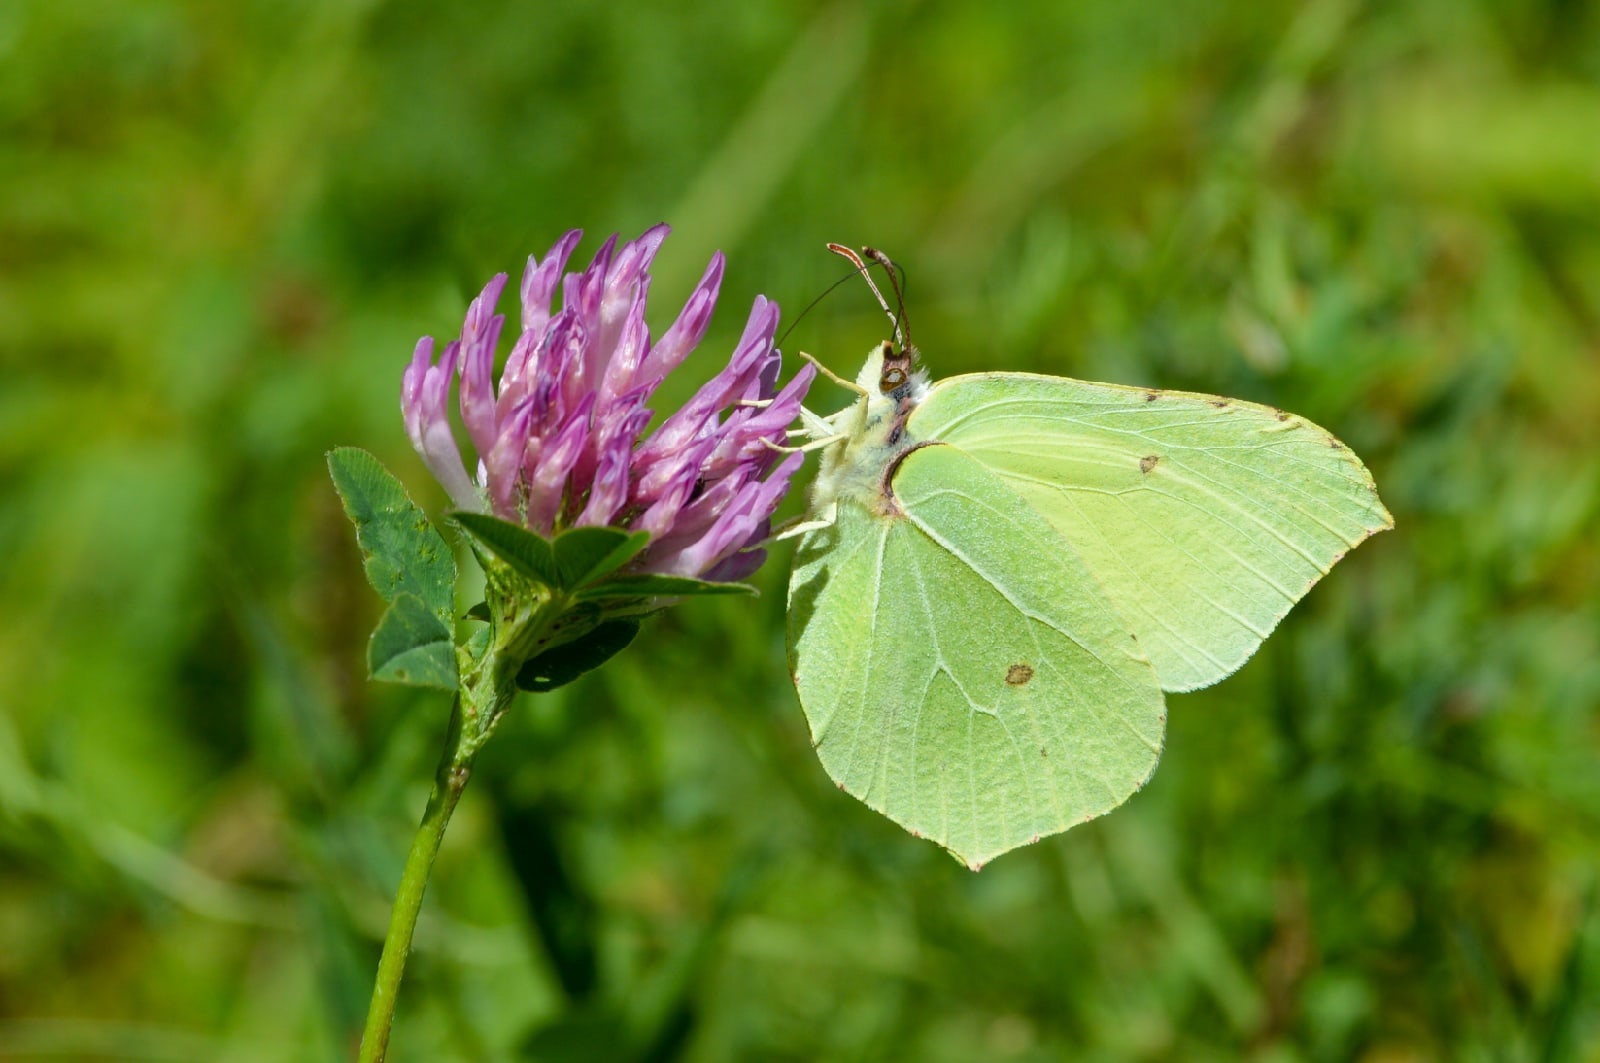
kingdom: Animalia
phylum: Arthropoda
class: Insecta
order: Lepidoptera
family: Pieridae
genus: Gonepteryx
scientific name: Gonepteryx rhamni
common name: Brimstone
